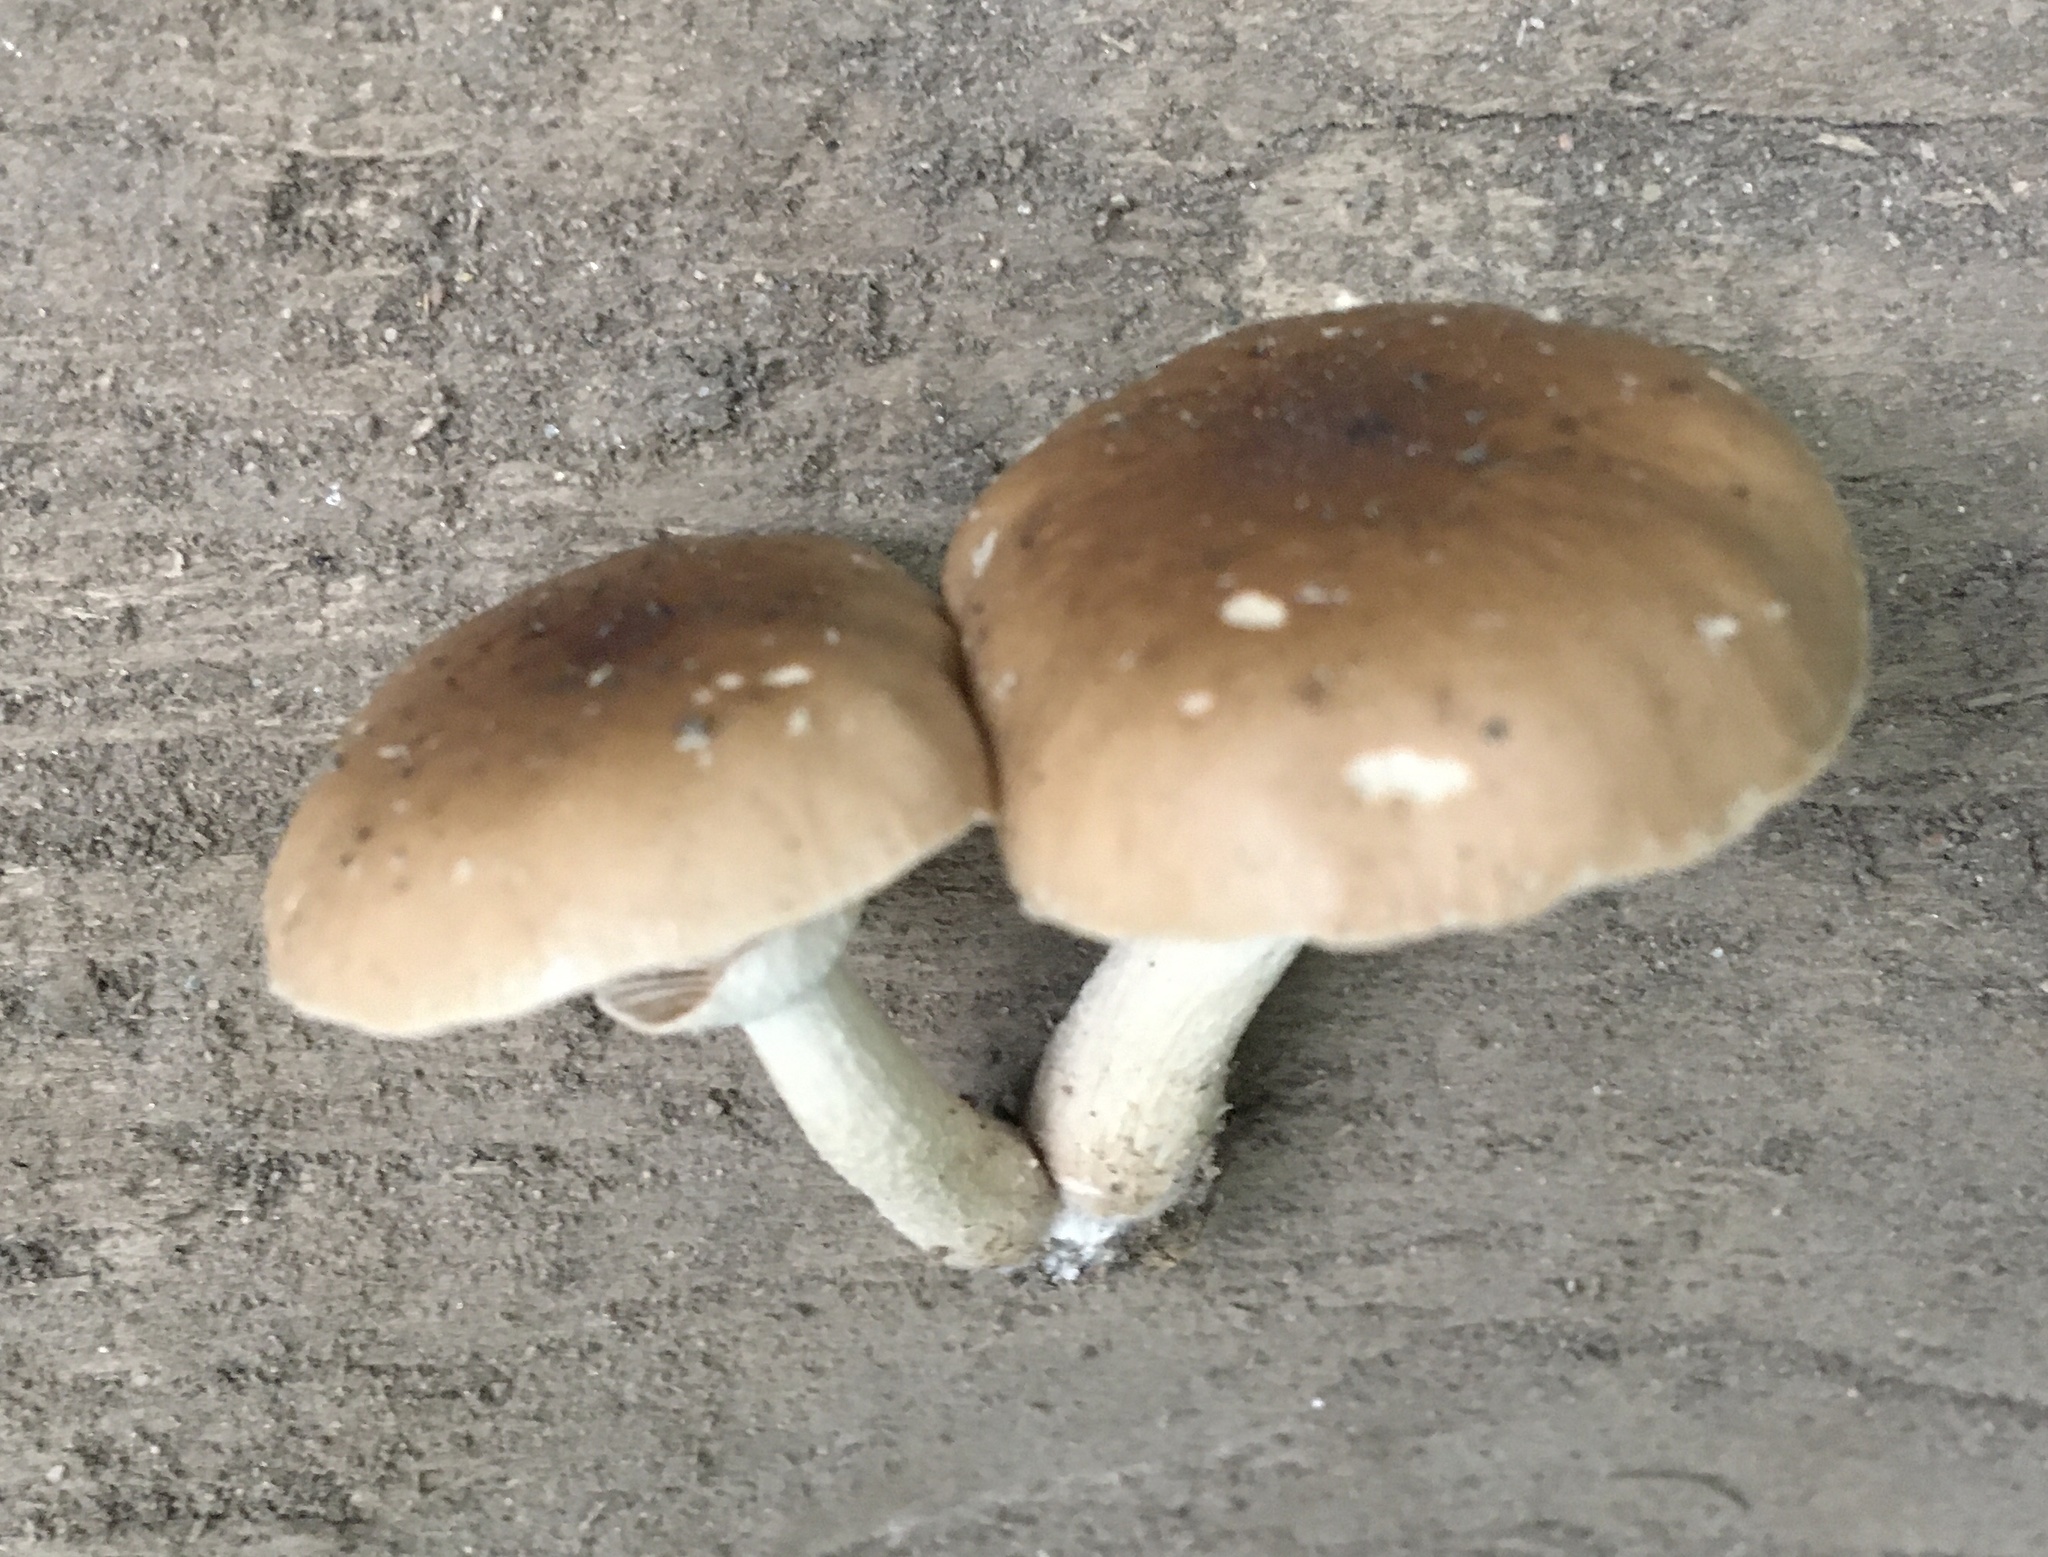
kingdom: Fungi
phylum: Basidiomycota
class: Agaricomycetes
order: Agaricales
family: Tubariaceae
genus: Cyclocybe
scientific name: Cyclocybe erebia
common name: Dark fieldcap
